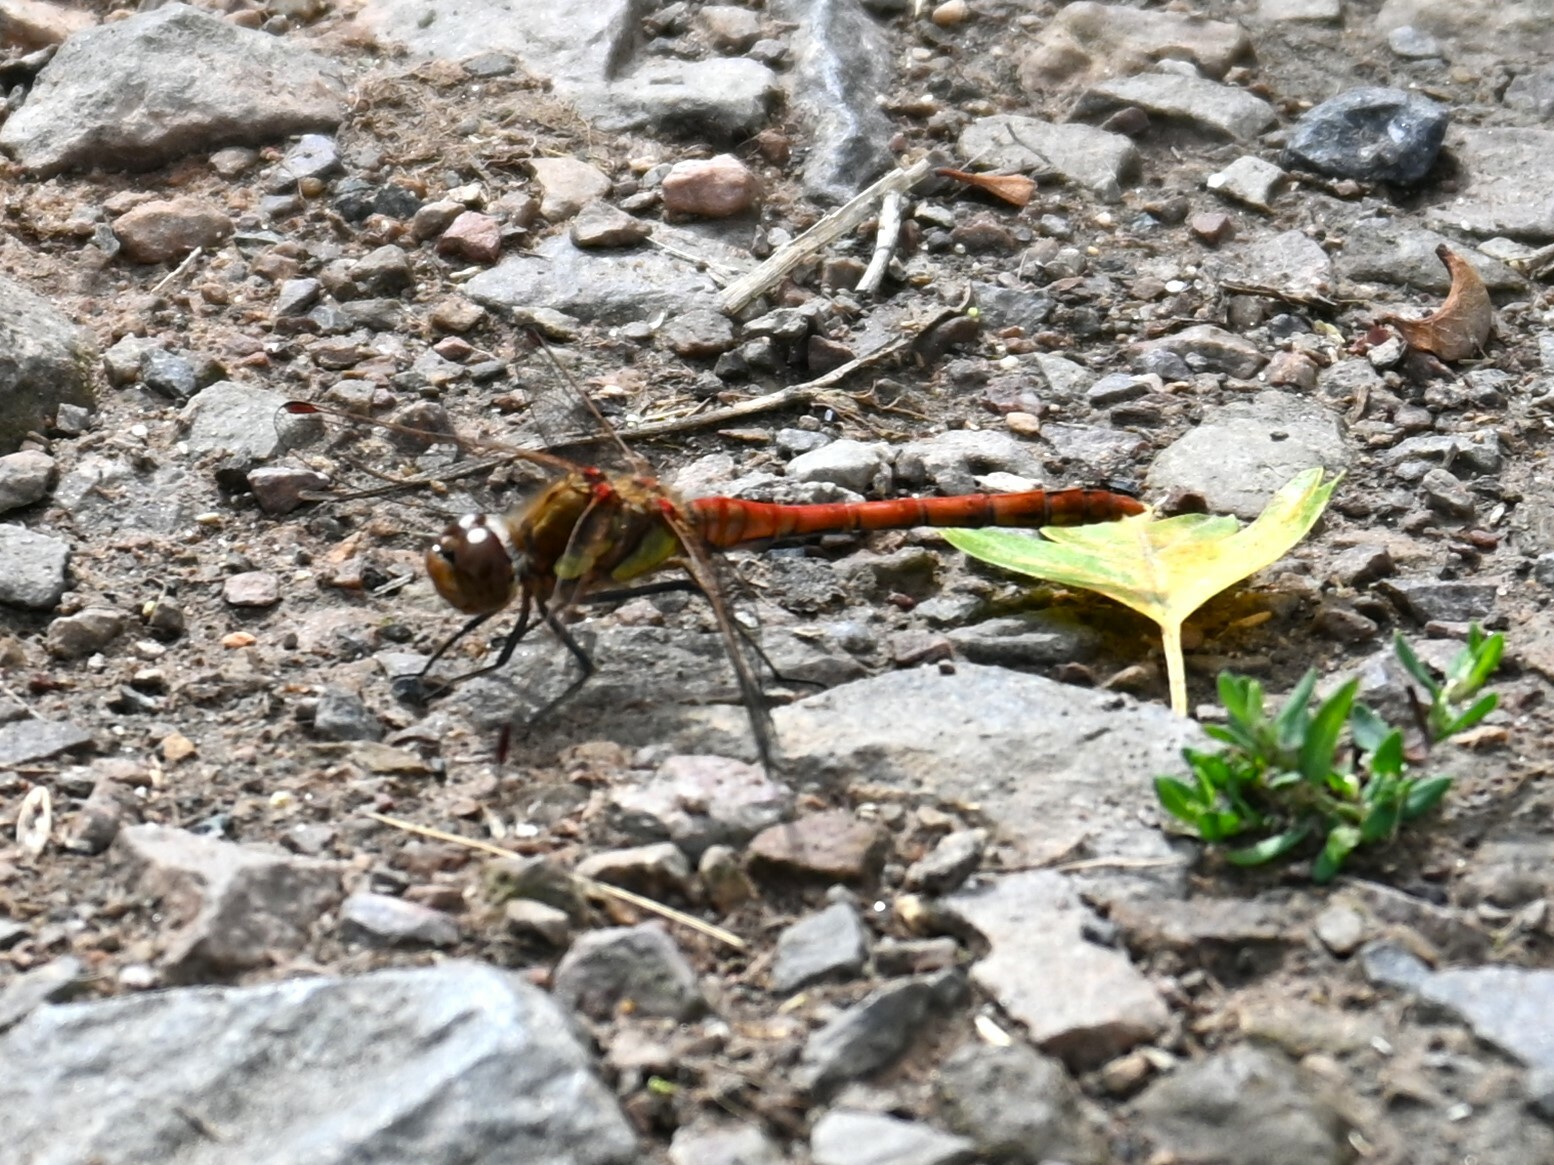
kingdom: Animalia
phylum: Arthropoda
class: Insecta
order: Odonata
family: Libellulidae
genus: Sympetrum
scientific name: Sympetrum striolatum
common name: Common darter
